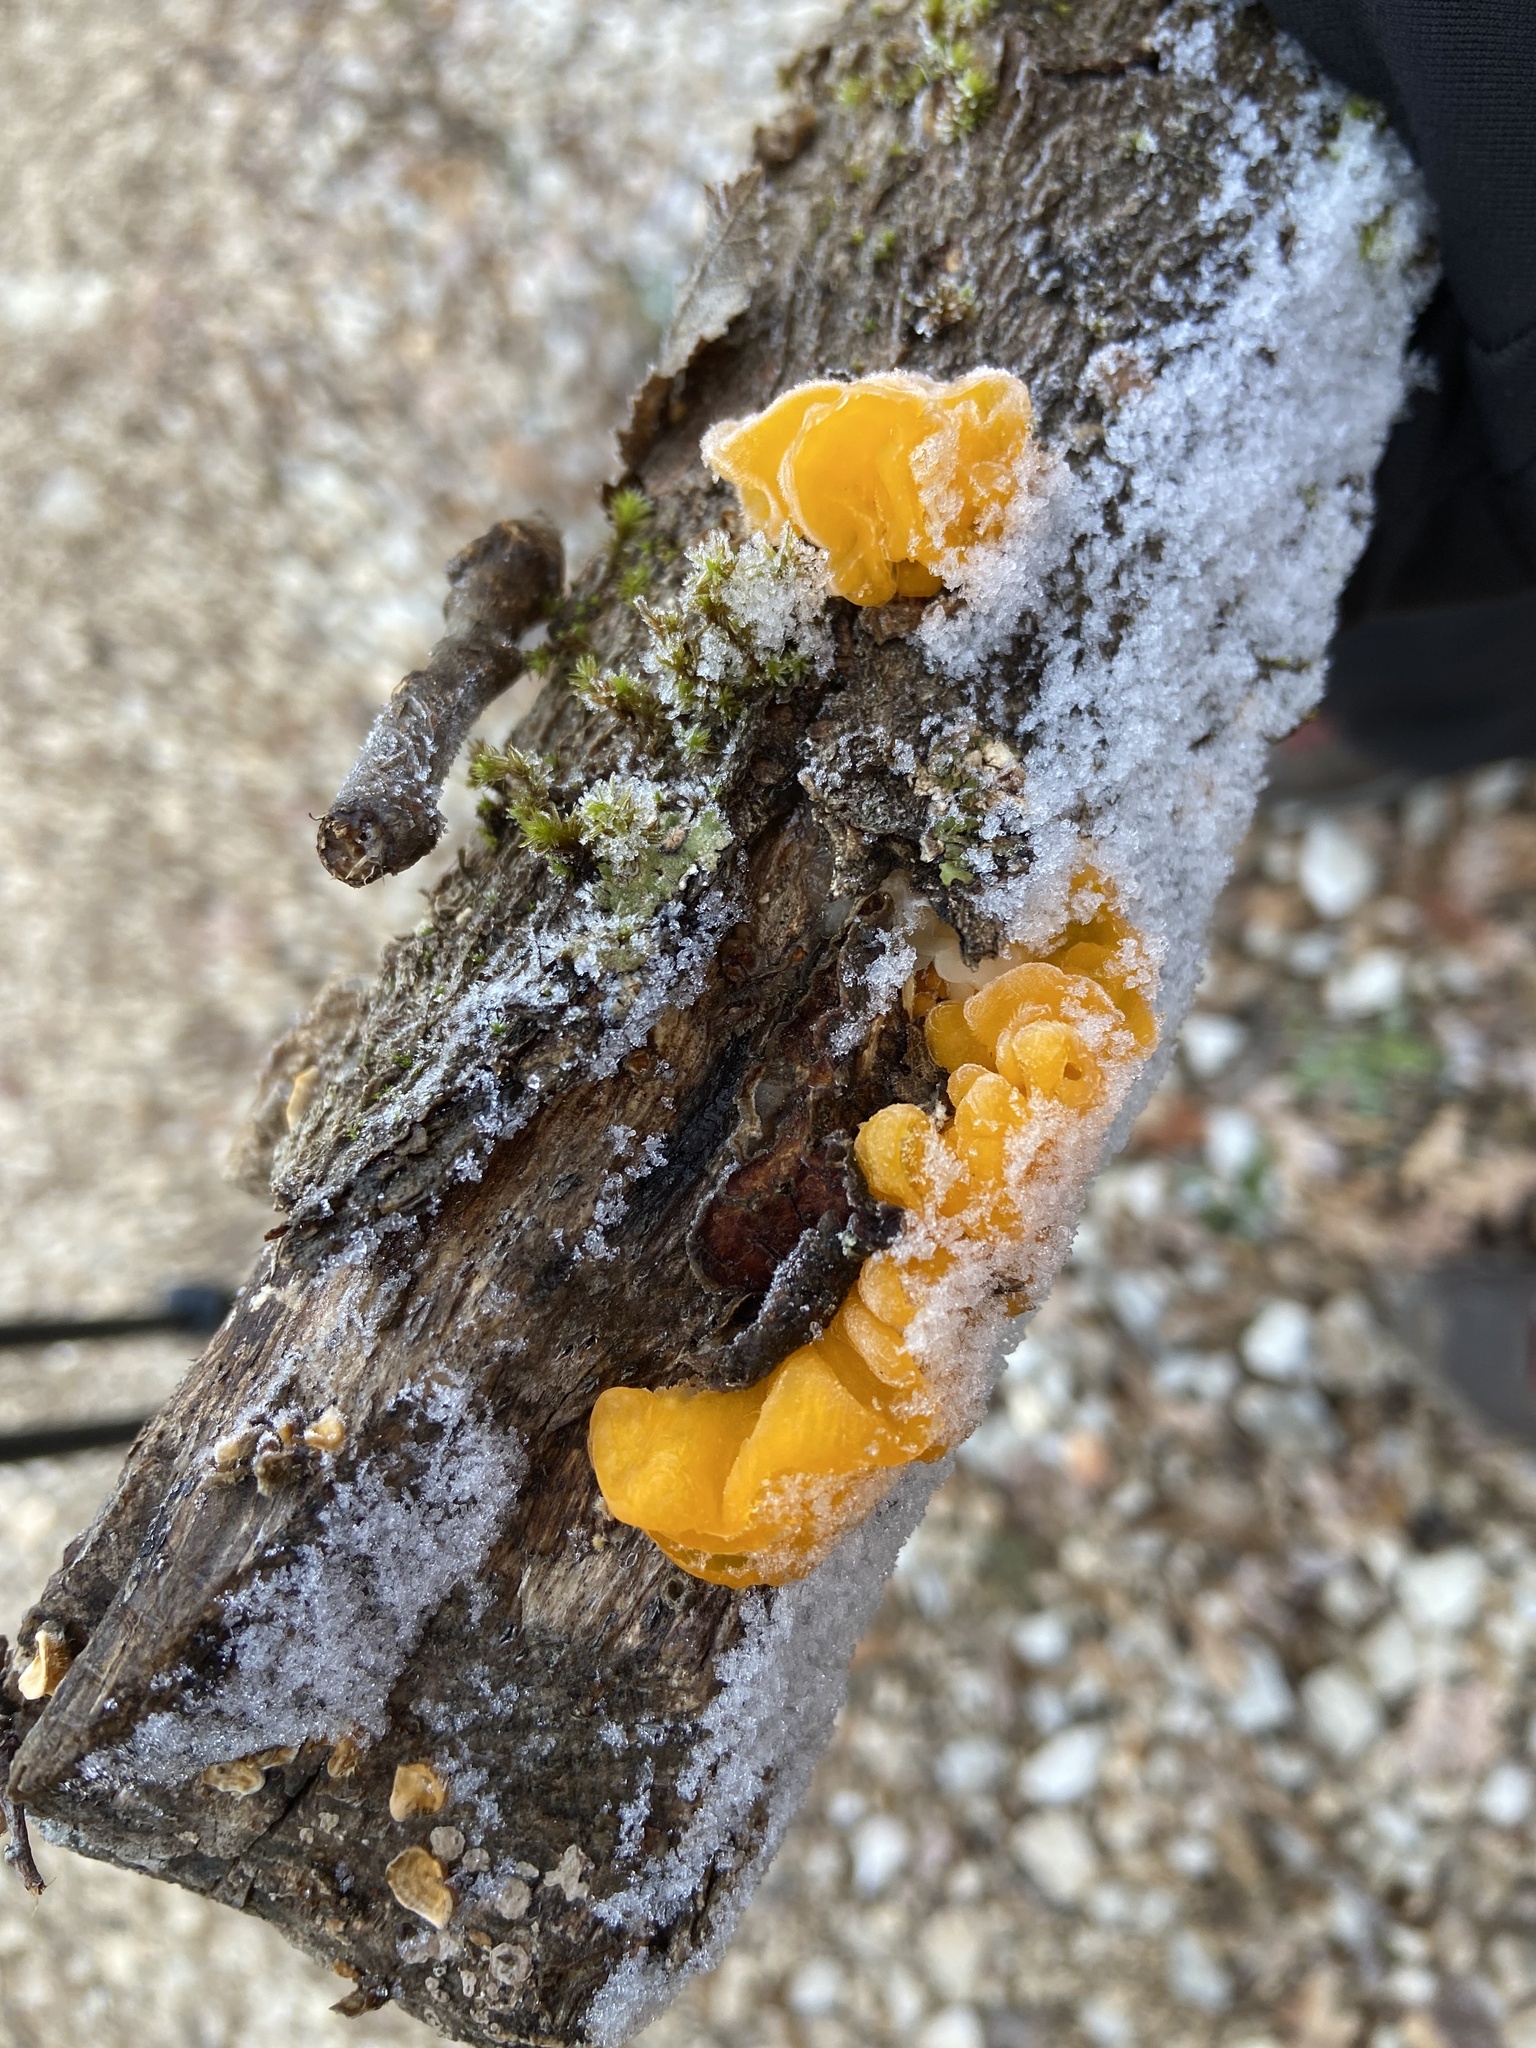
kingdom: Fungi
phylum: Basidiomycota
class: Tremellomycetes
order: Tremellales
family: Naemateliaceae
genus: Naematelia
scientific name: Naematelia aurantia
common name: Golden ear
